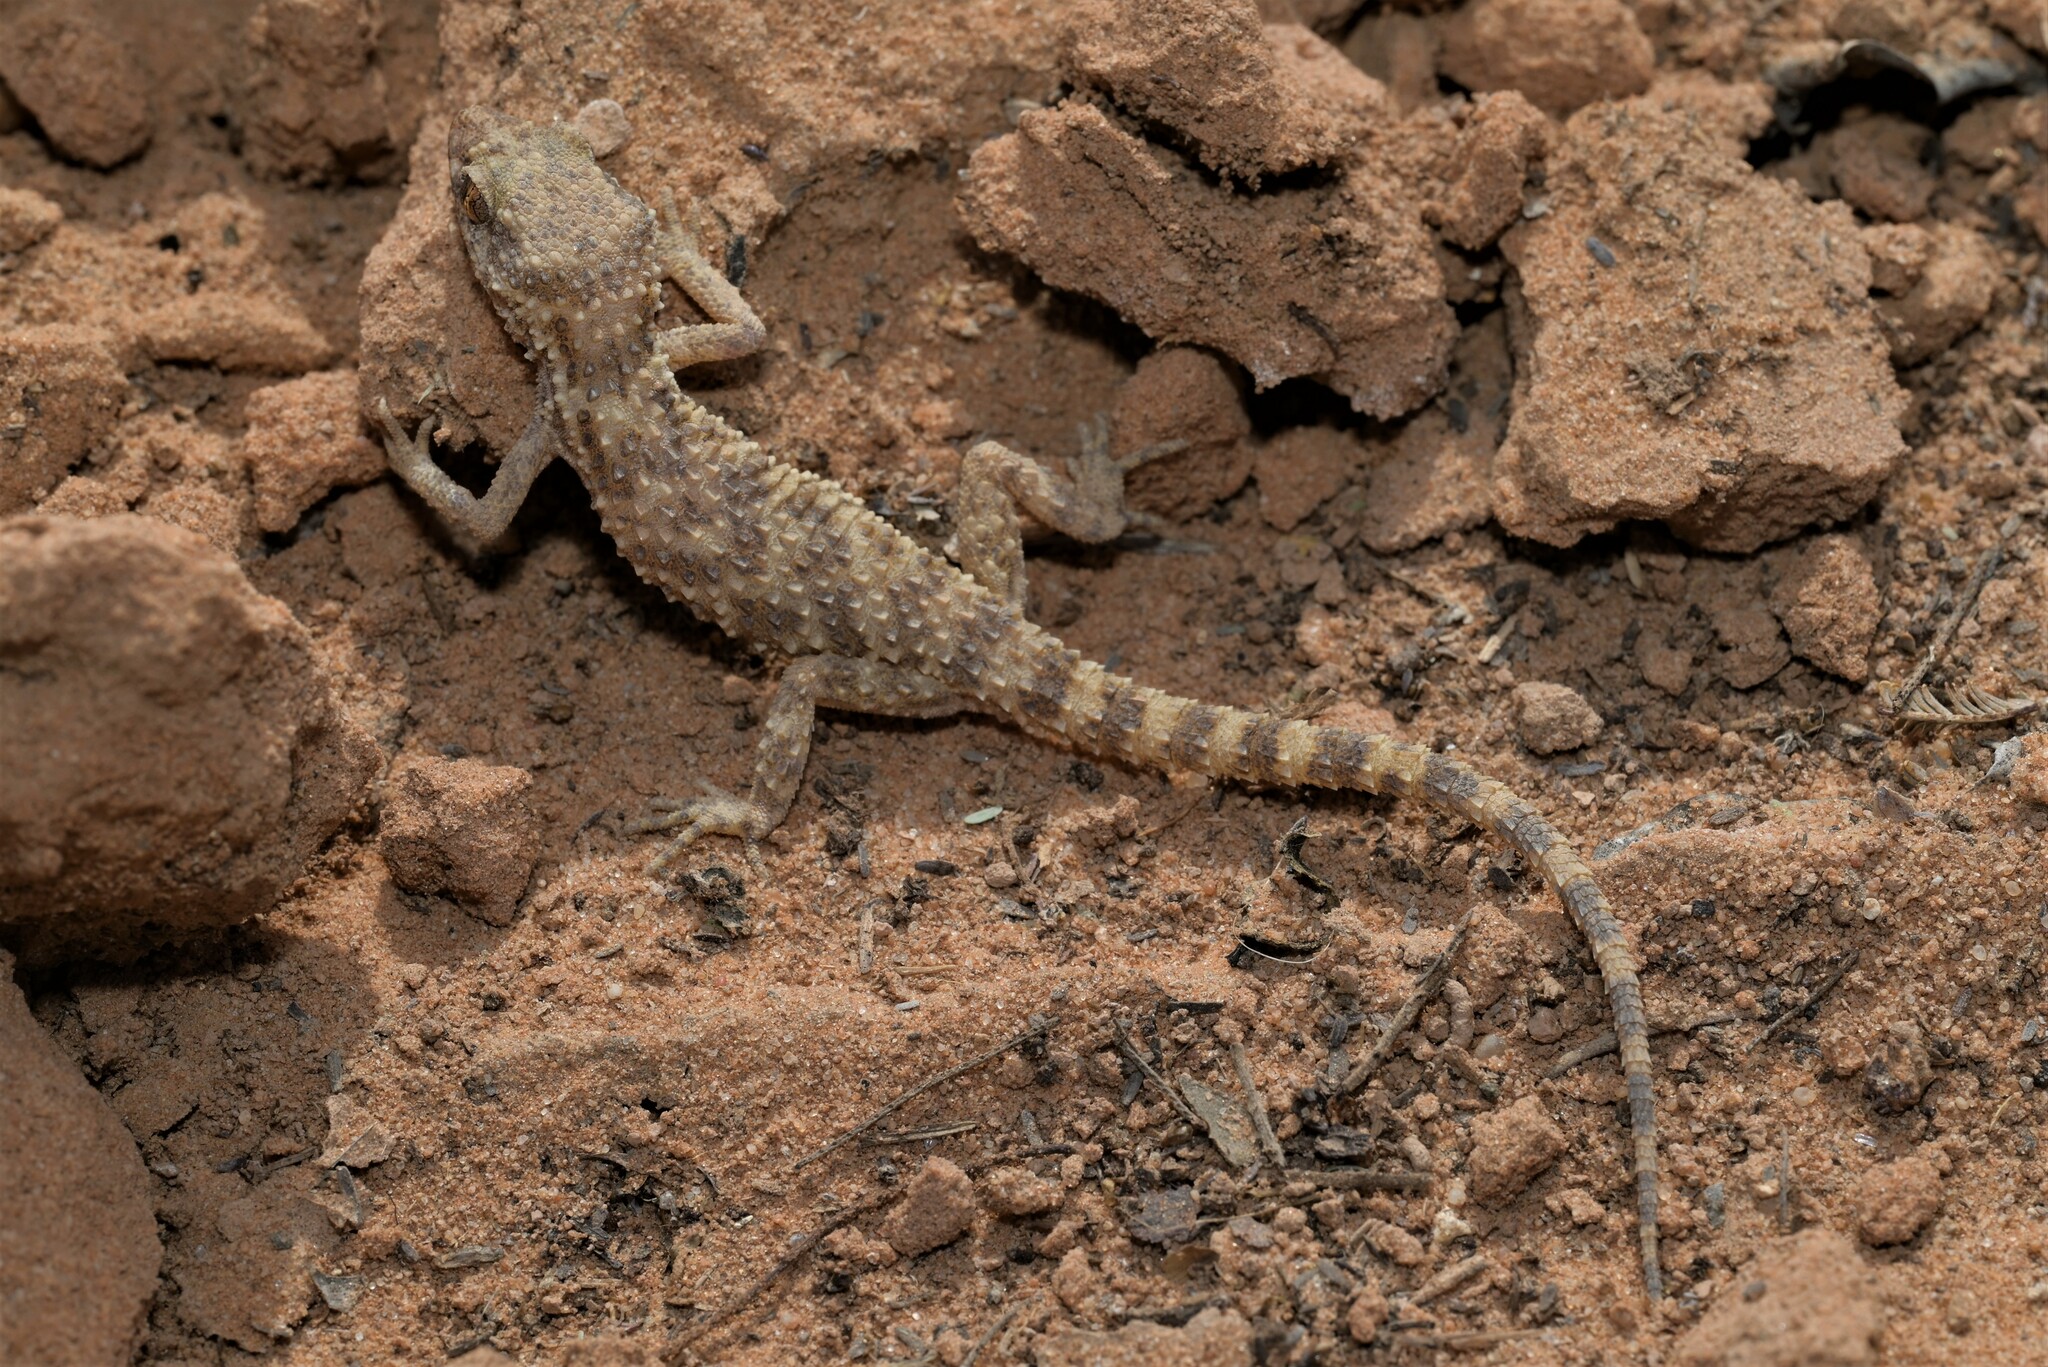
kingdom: Animalia
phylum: Chordata
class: Squamata
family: Gekkonidae
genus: Bunopus
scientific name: Bunopus tuberculatus
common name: Southern tuberculated gecko
